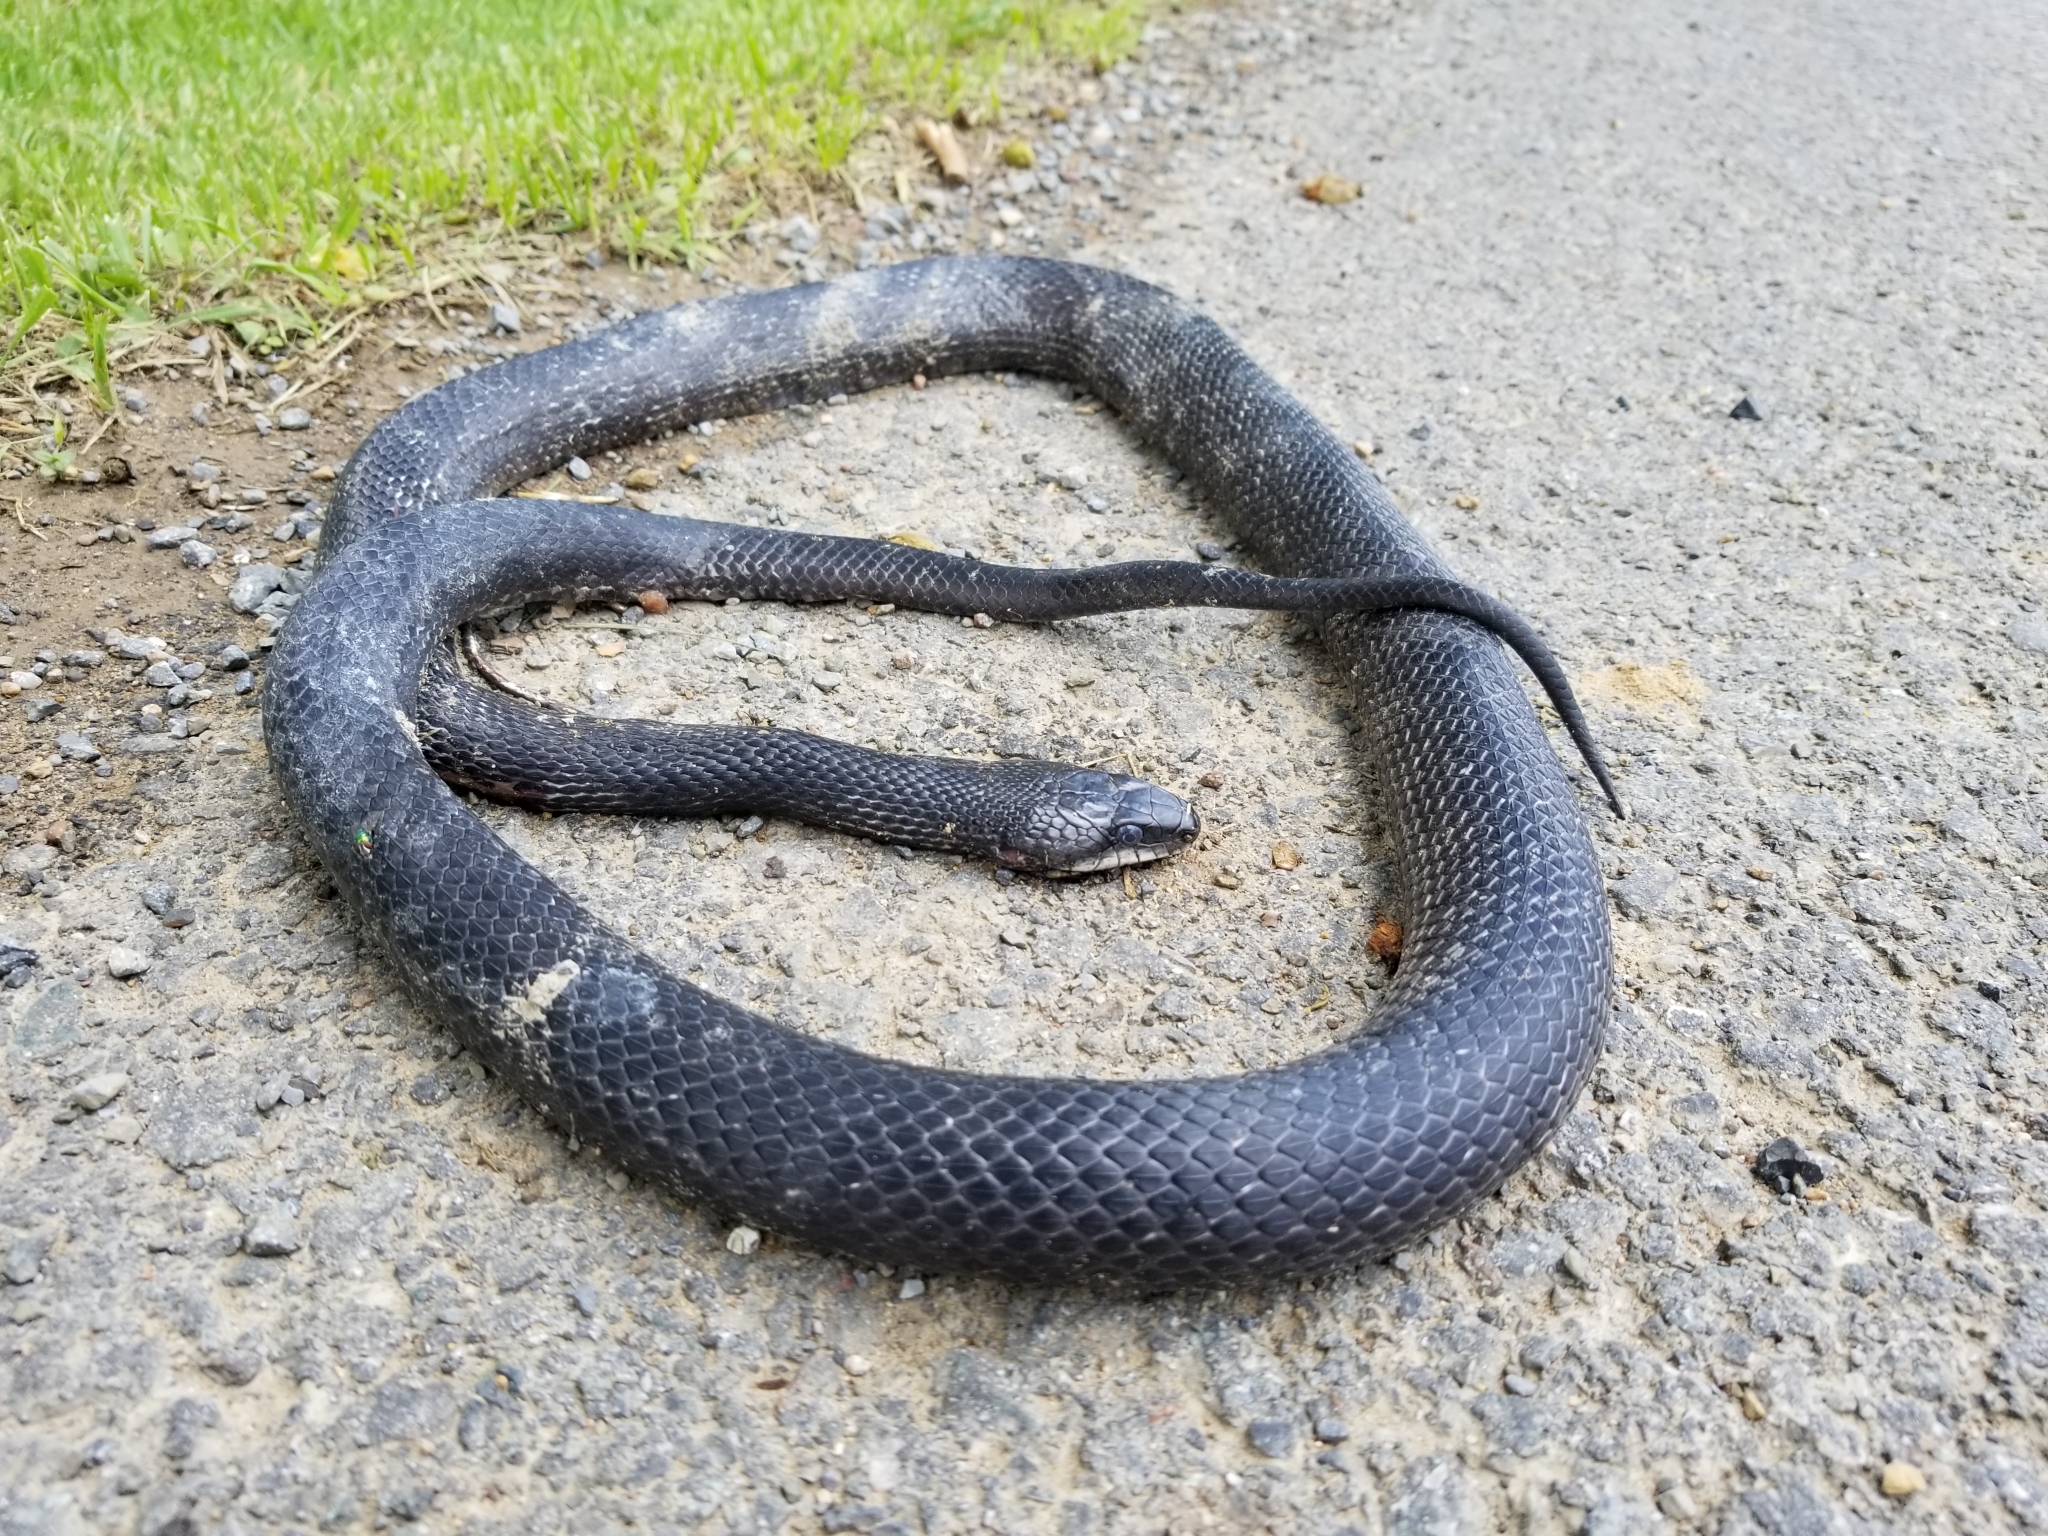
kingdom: Animalia
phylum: Chordata
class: Squamata
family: Colubridae
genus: Pantherophis
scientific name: Pantherophis
